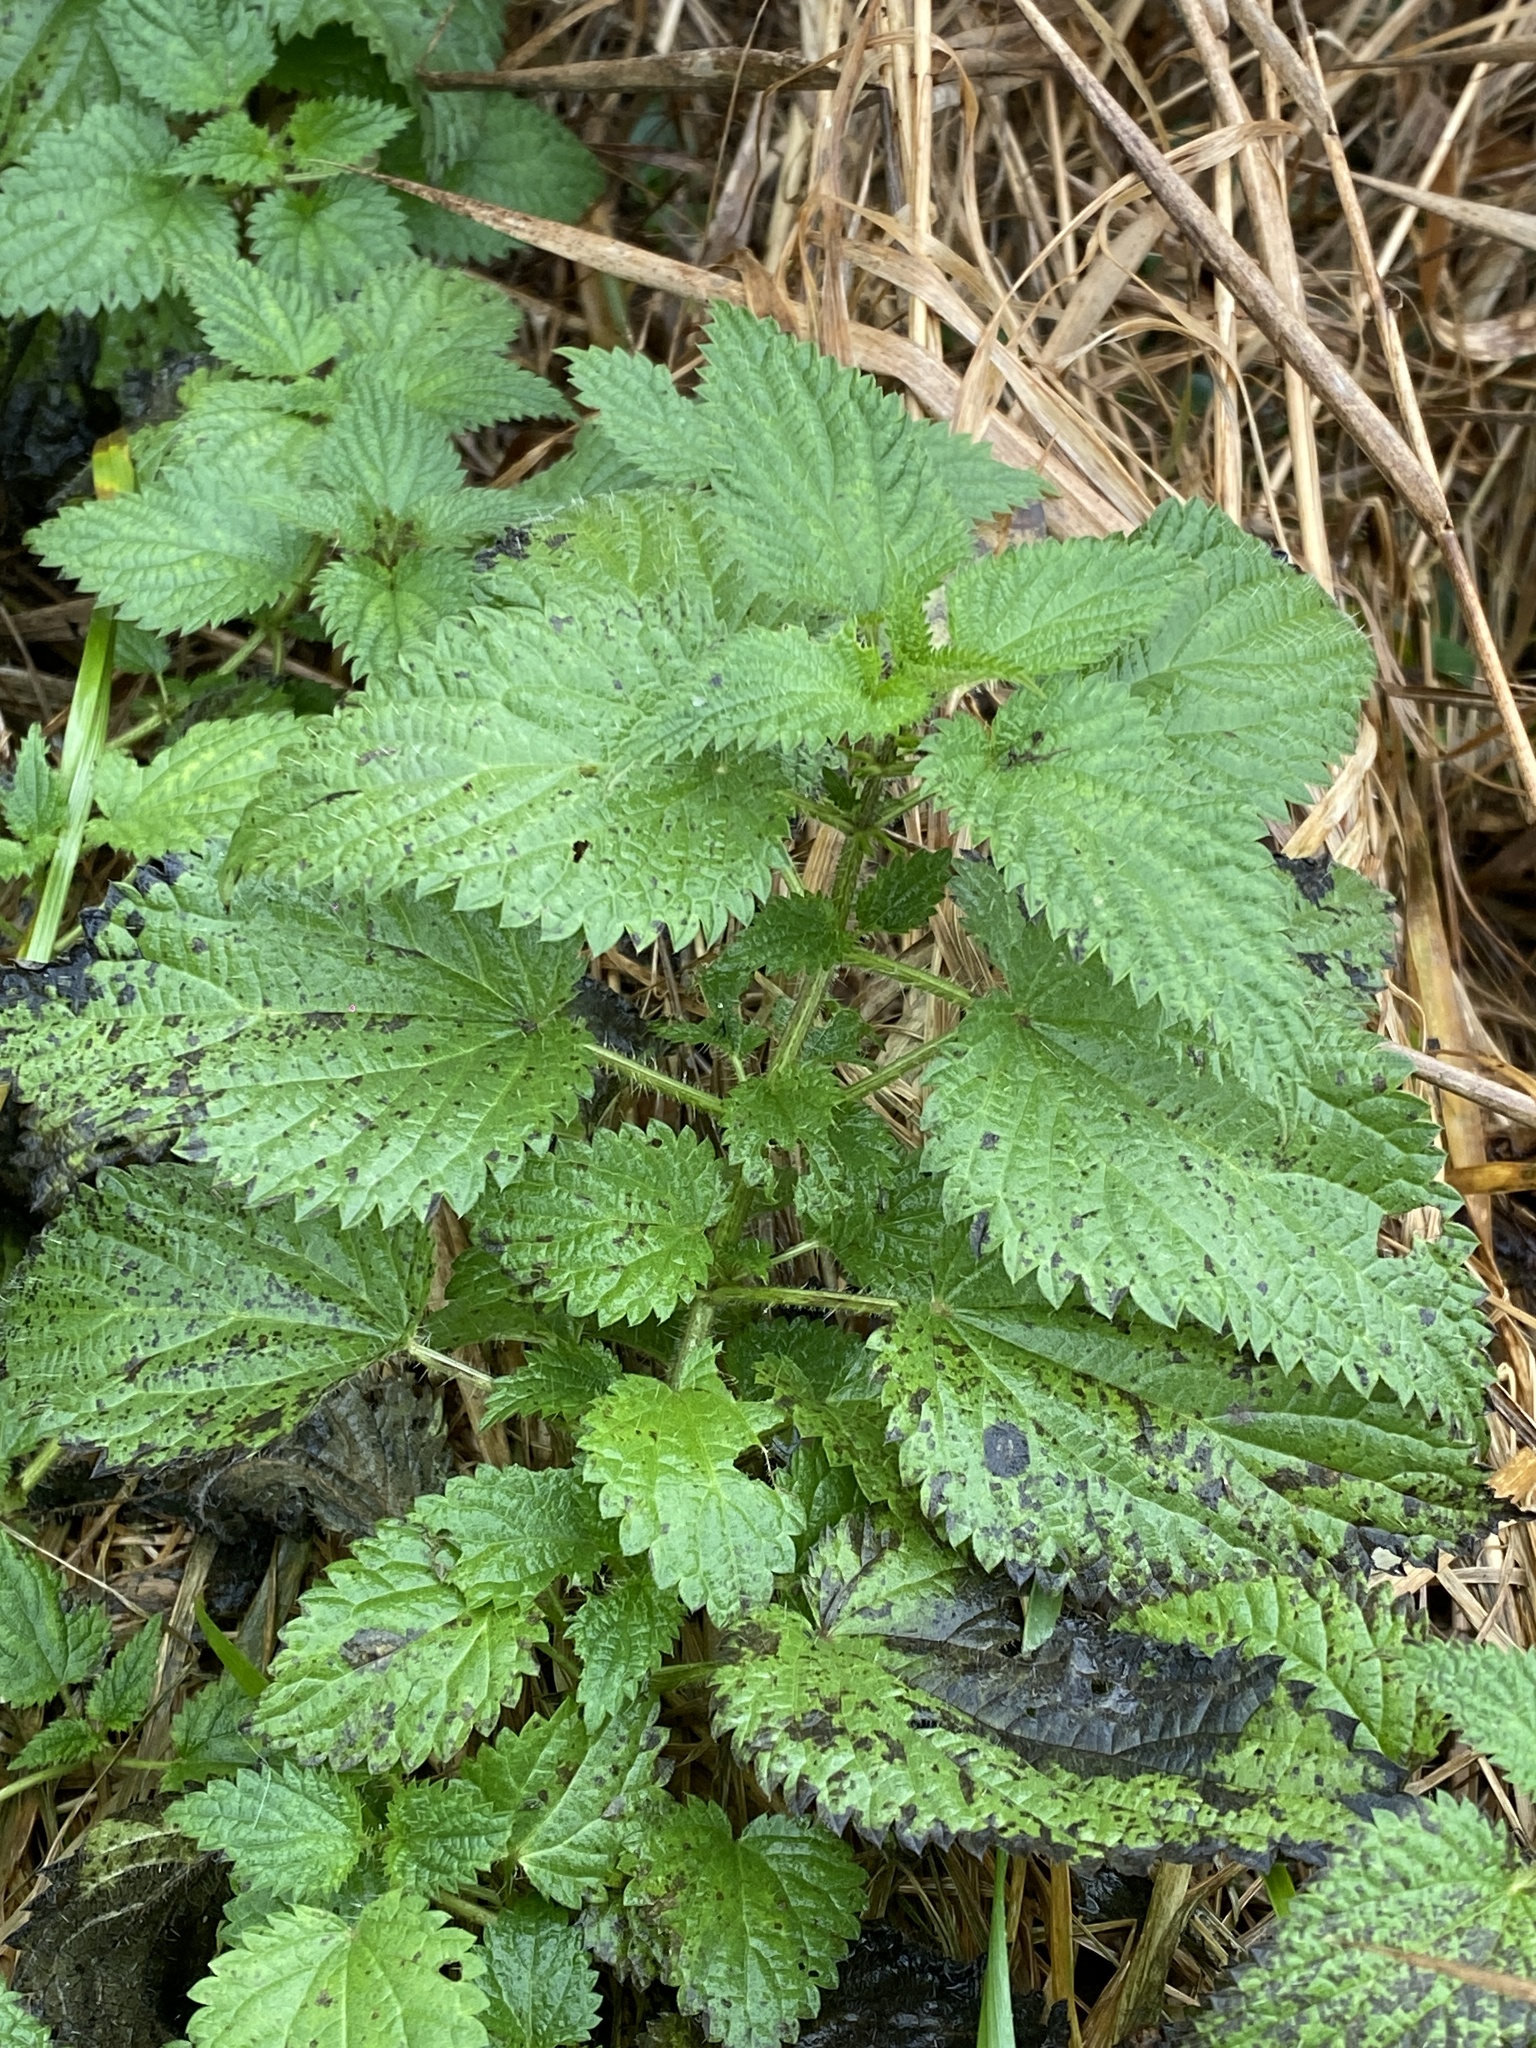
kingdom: Plantae
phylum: Tracheophyta
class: Magnoliopsida
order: Rosales
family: Urticaceae
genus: Urtica
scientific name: Urtica dioica
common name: Common nettle
